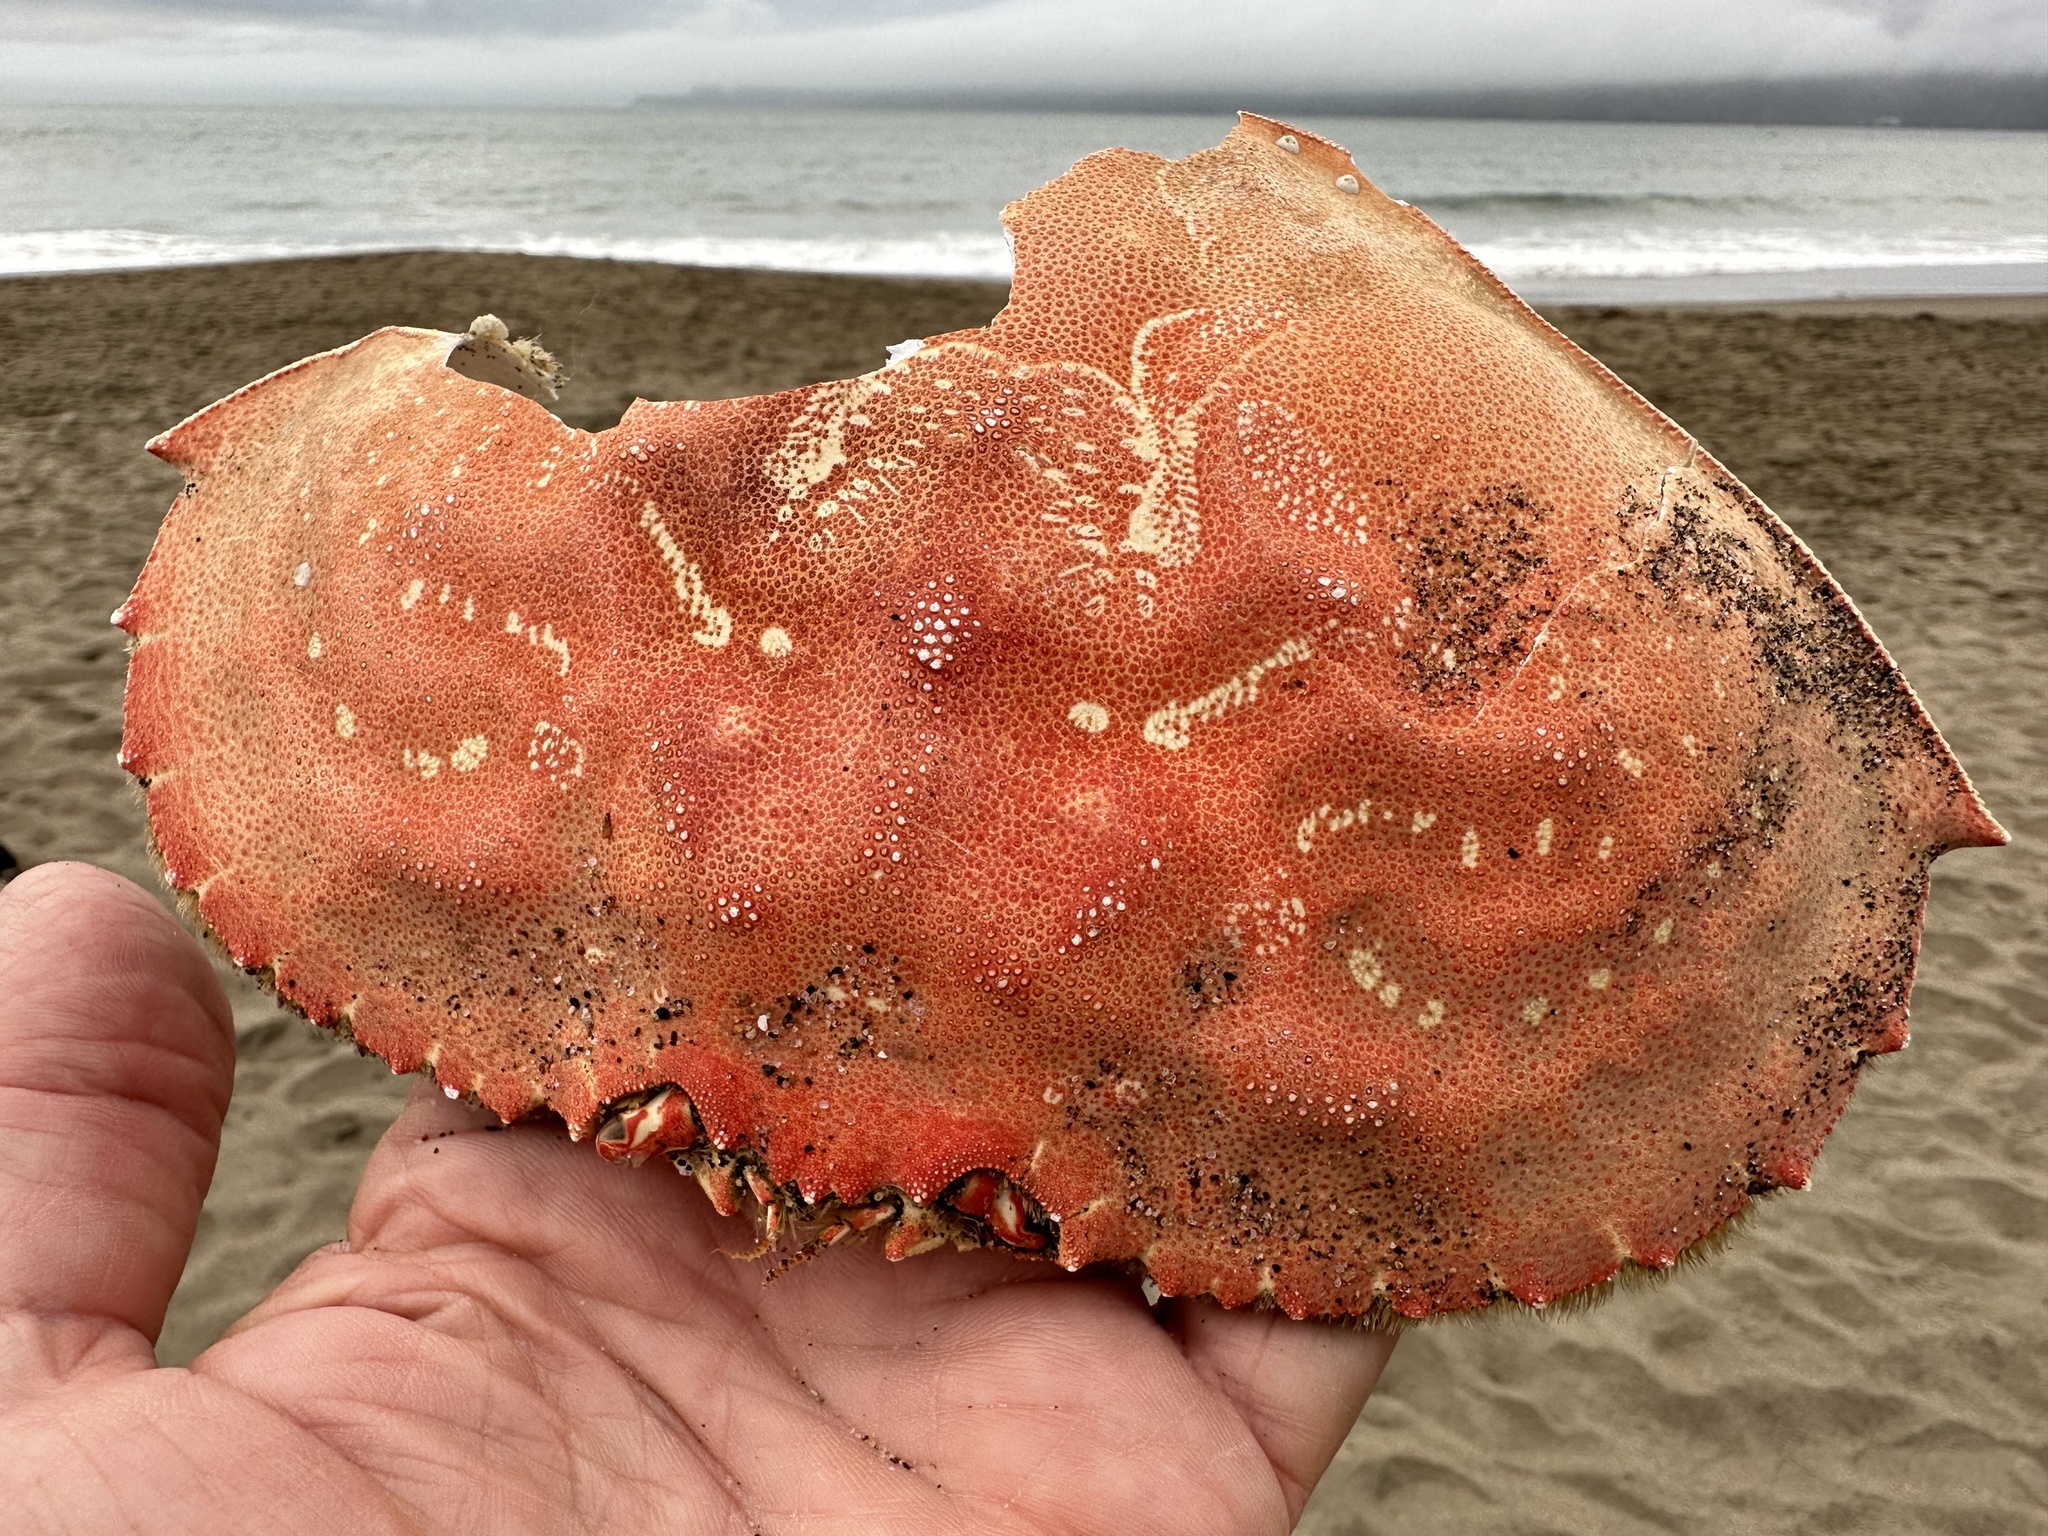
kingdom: Animalia
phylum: Arthropoda
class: Malacostraca
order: Decapoda
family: Cancridae
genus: Metacarcinus
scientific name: Metacarcinus magister
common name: Californian crab
